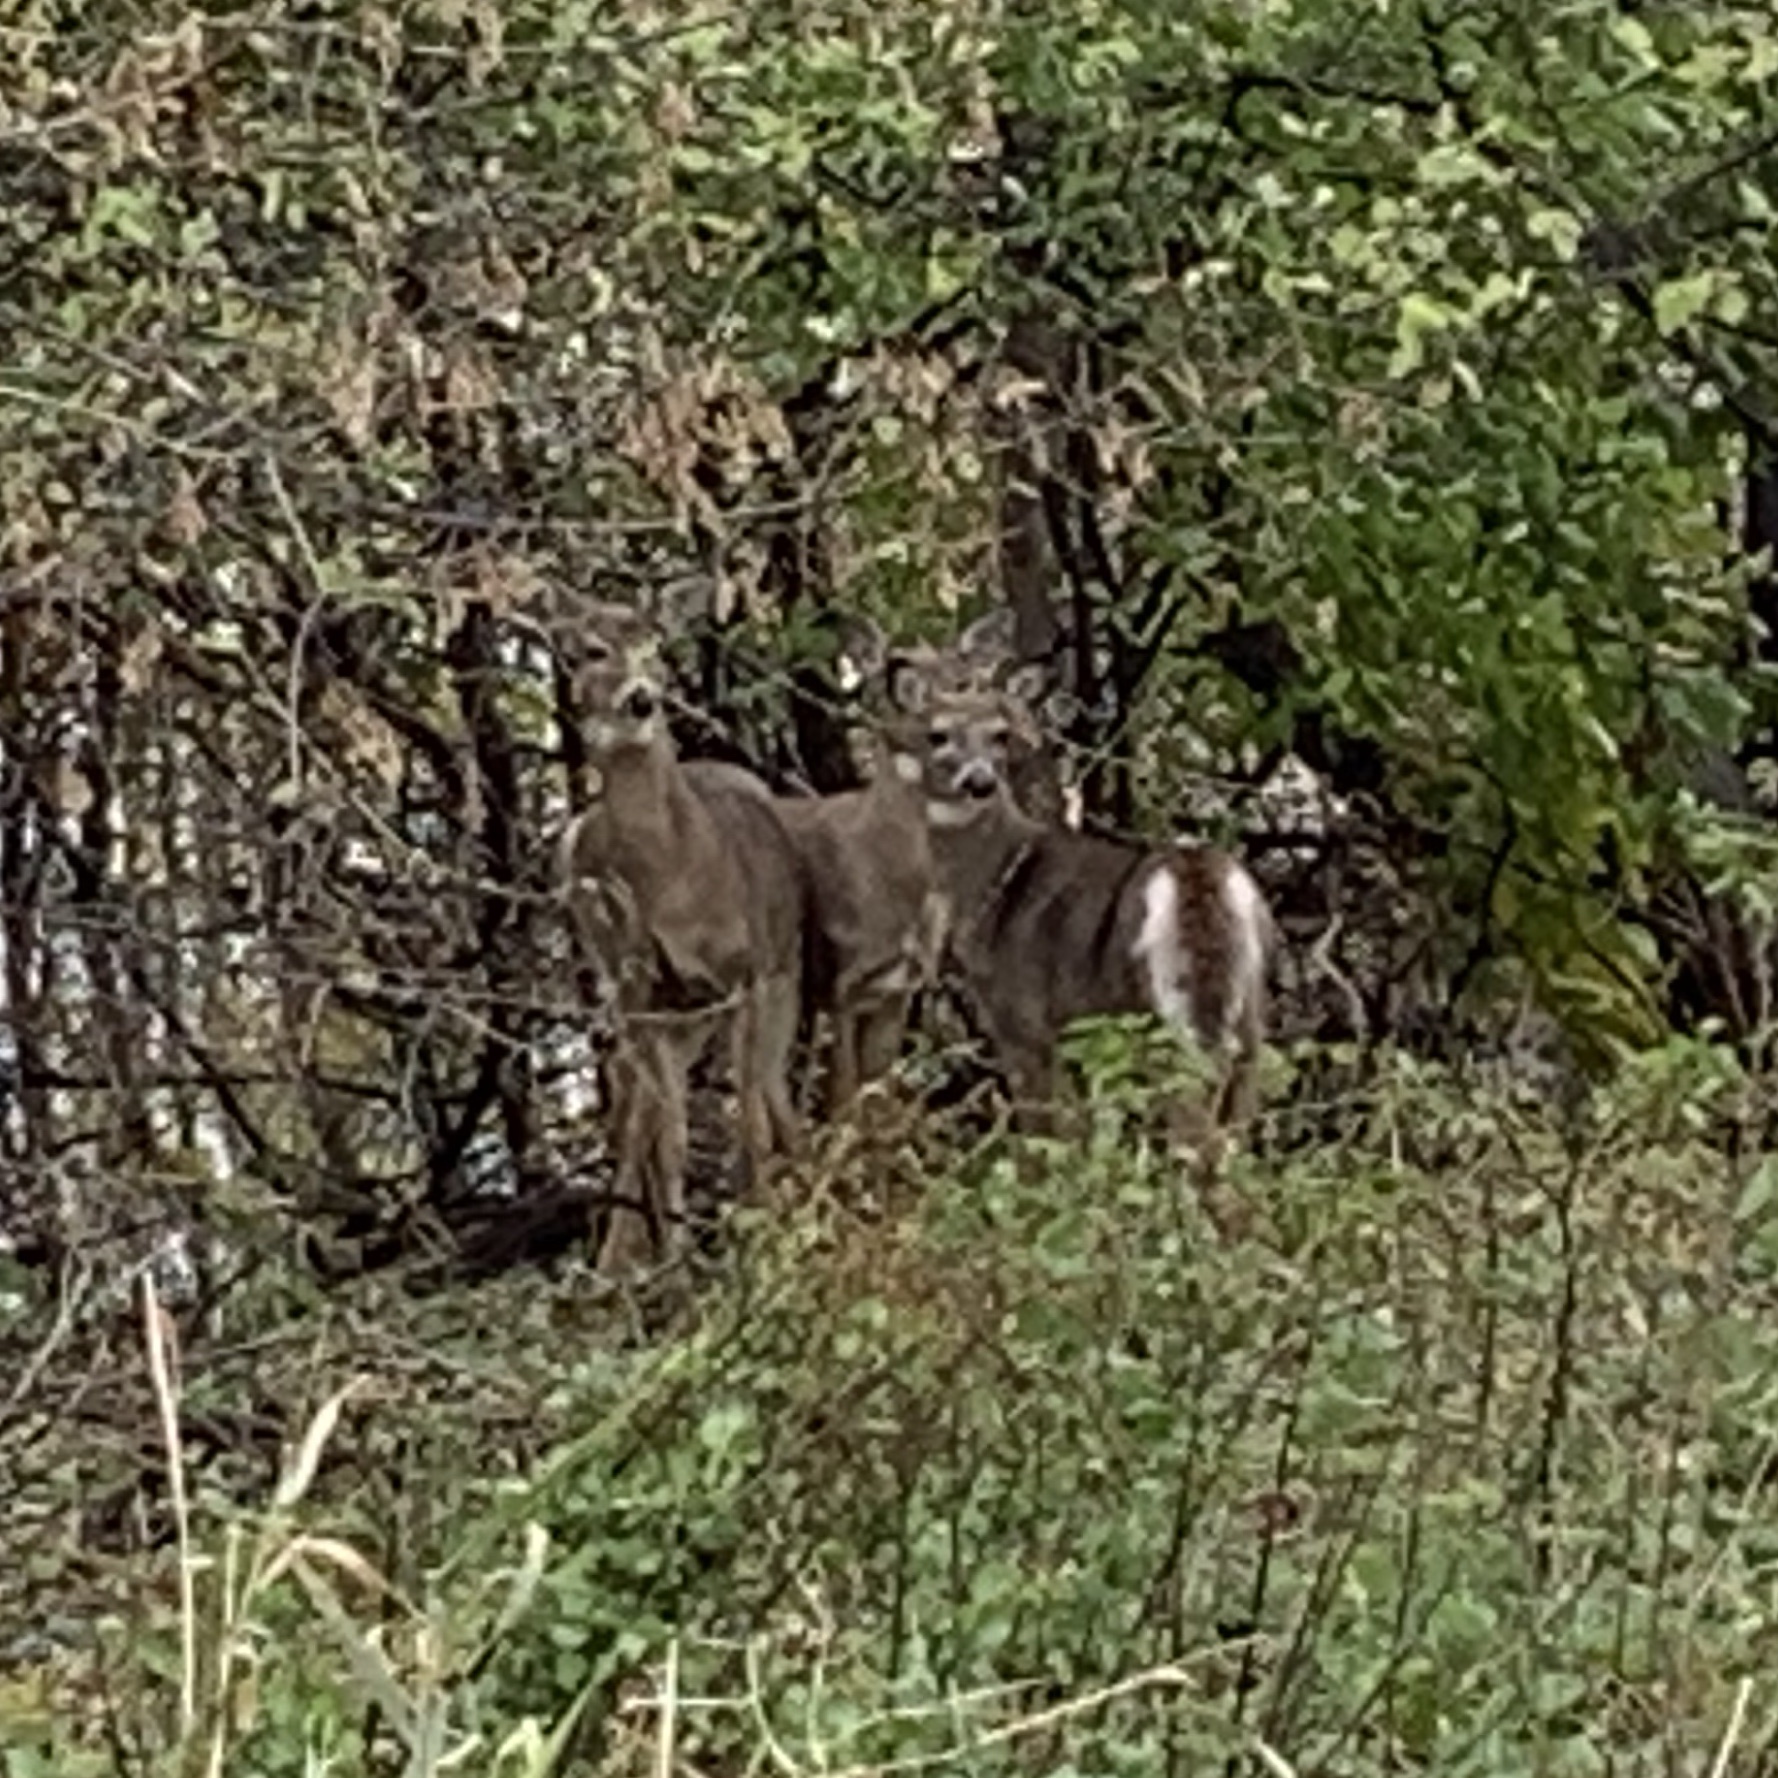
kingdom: Animalia
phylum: Chordata
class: Mammalia
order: Artiodactyla
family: Cervidae
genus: Odocoileus
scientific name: Odocoileus virginianus
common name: White-tailed deer
